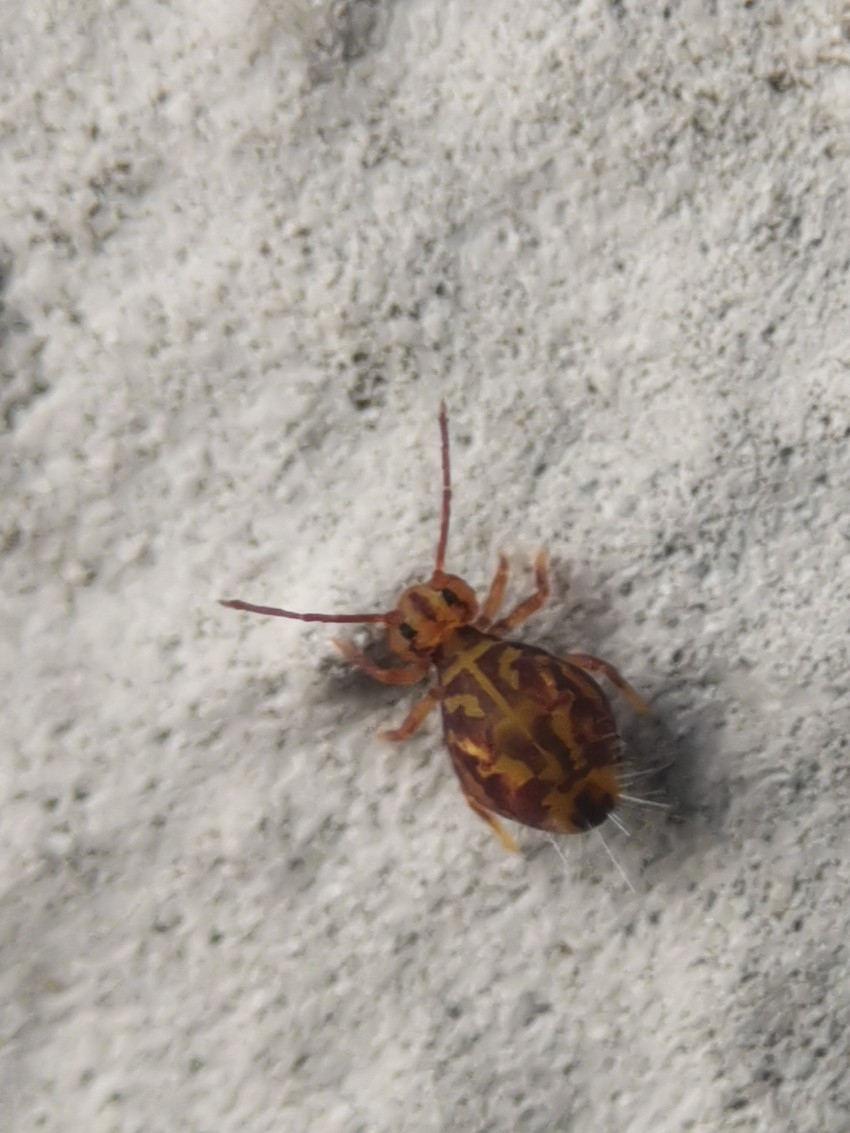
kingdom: Animalia
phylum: Arthropoda
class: Collembola
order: Symphypleona
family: Dicyrtomidae
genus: Dicyrtomina
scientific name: Dicyrtomina ornata
